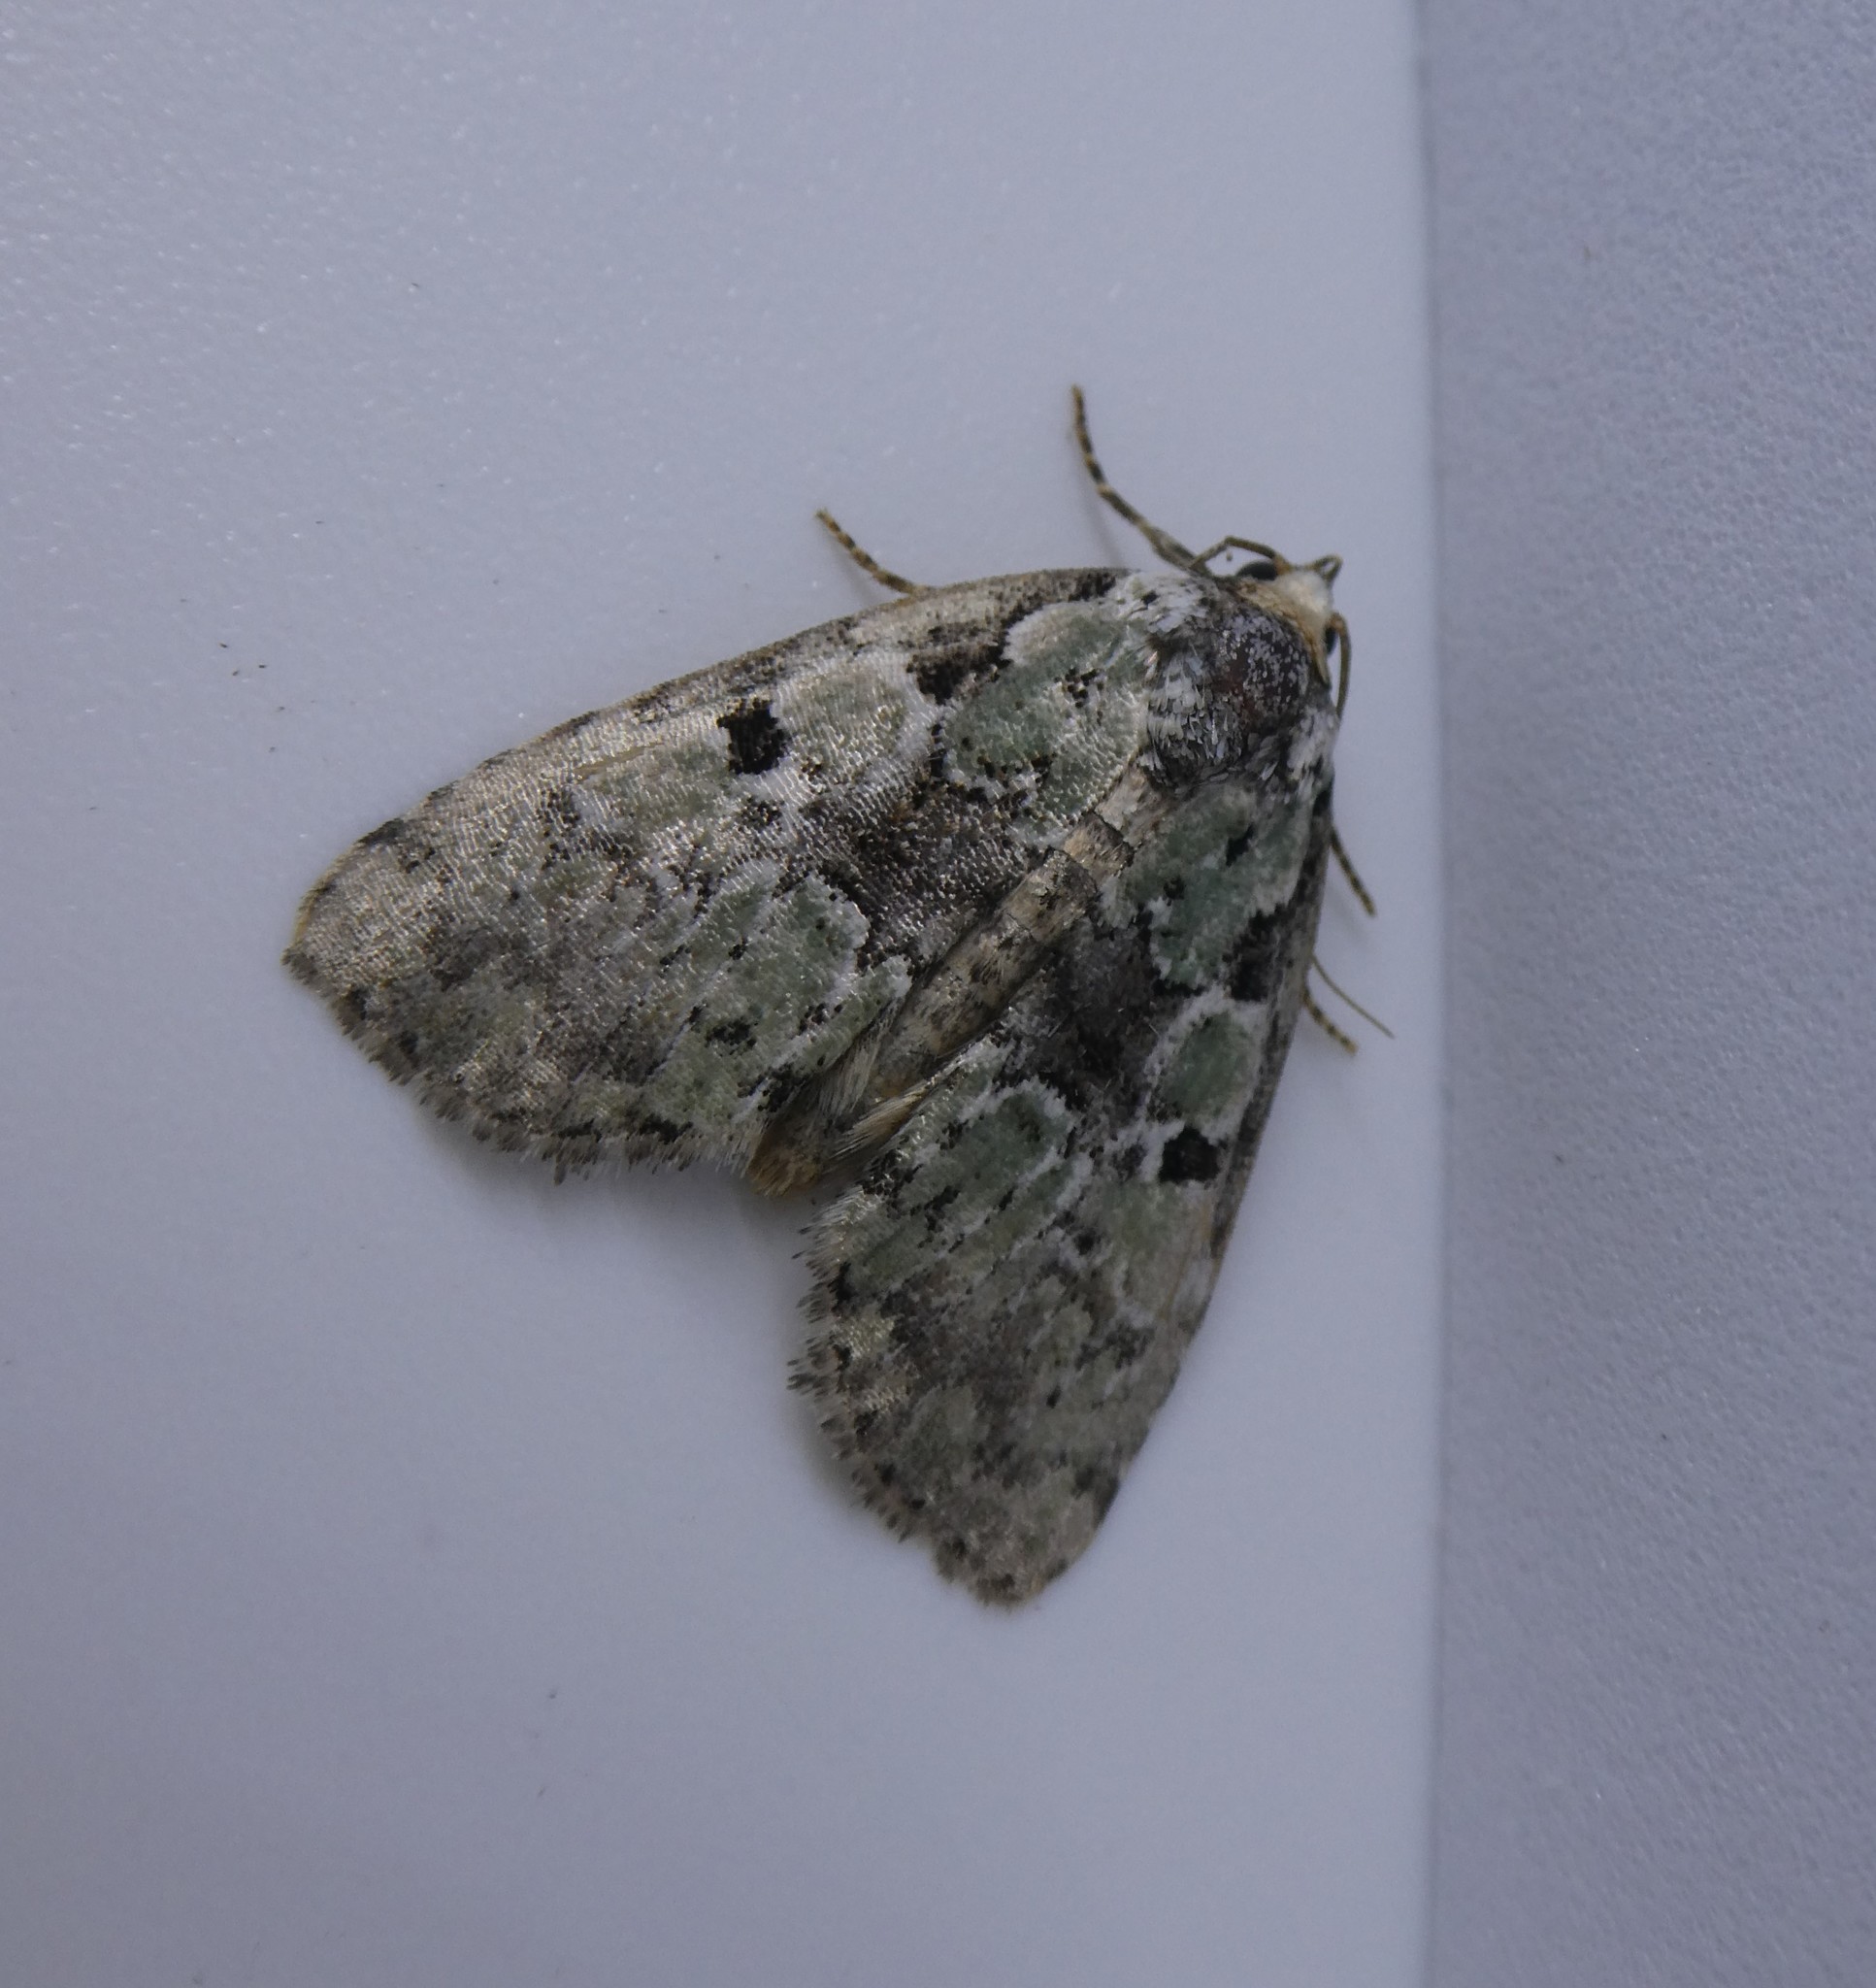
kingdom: Animalia
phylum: Arthropoda
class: Insecta
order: Lepidoptera
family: Noctuidae
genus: Leuconycta
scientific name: Leuconycta lepidula
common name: Marbled-green leuconycta moth
